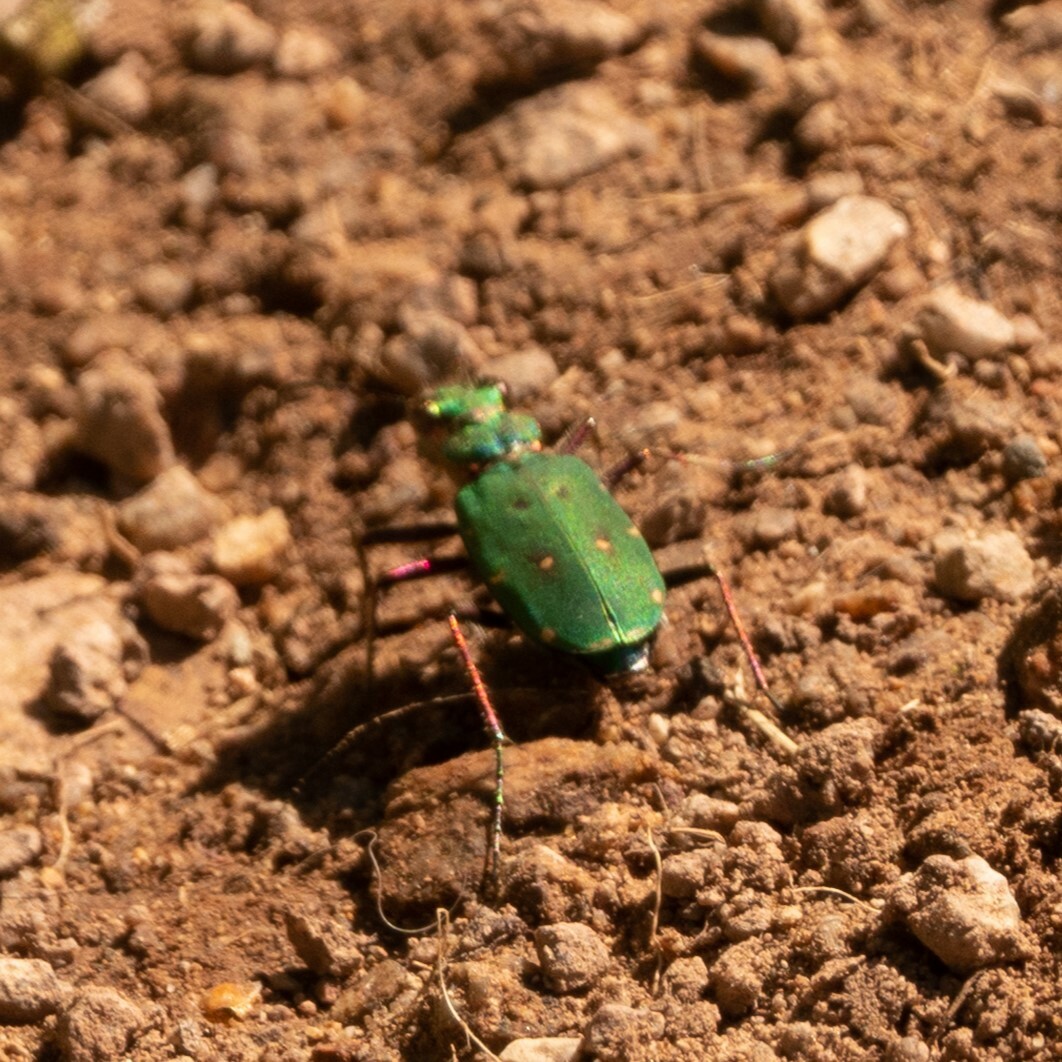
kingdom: Animalia
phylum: Arthropoda
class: Insecta
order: Coleoptera
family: Carabidae
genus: Cicindela
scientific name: Cicindela campestris
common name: Common tiger beetle
